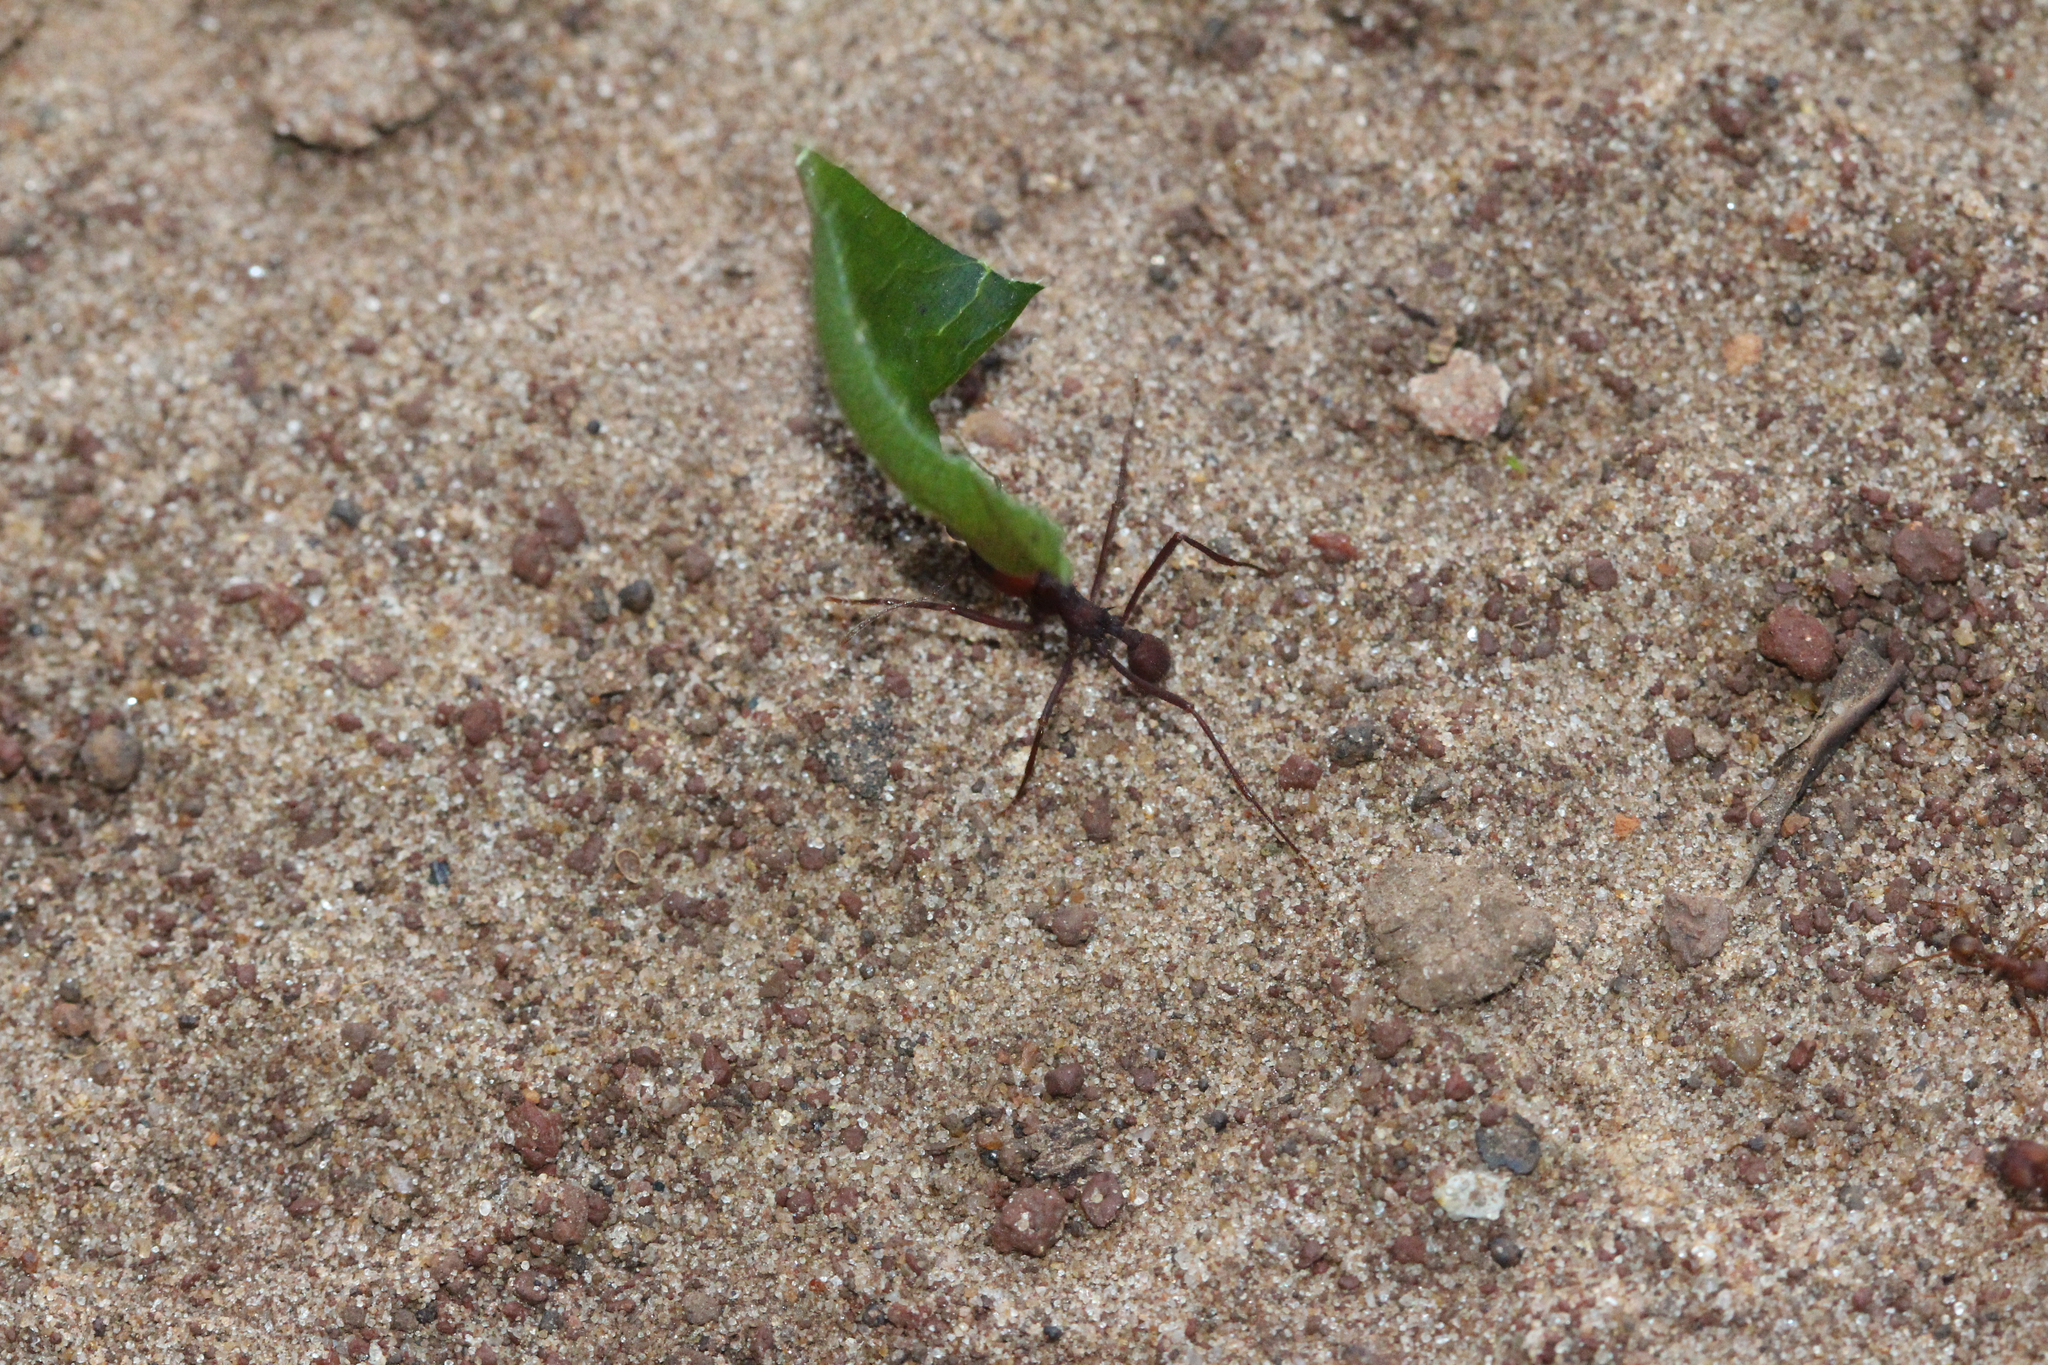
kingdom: Animalia
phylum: Arthropoda
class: Insecta
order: Hymenoptera
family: Formicidae
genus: Atta
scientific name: Atta sexdens
